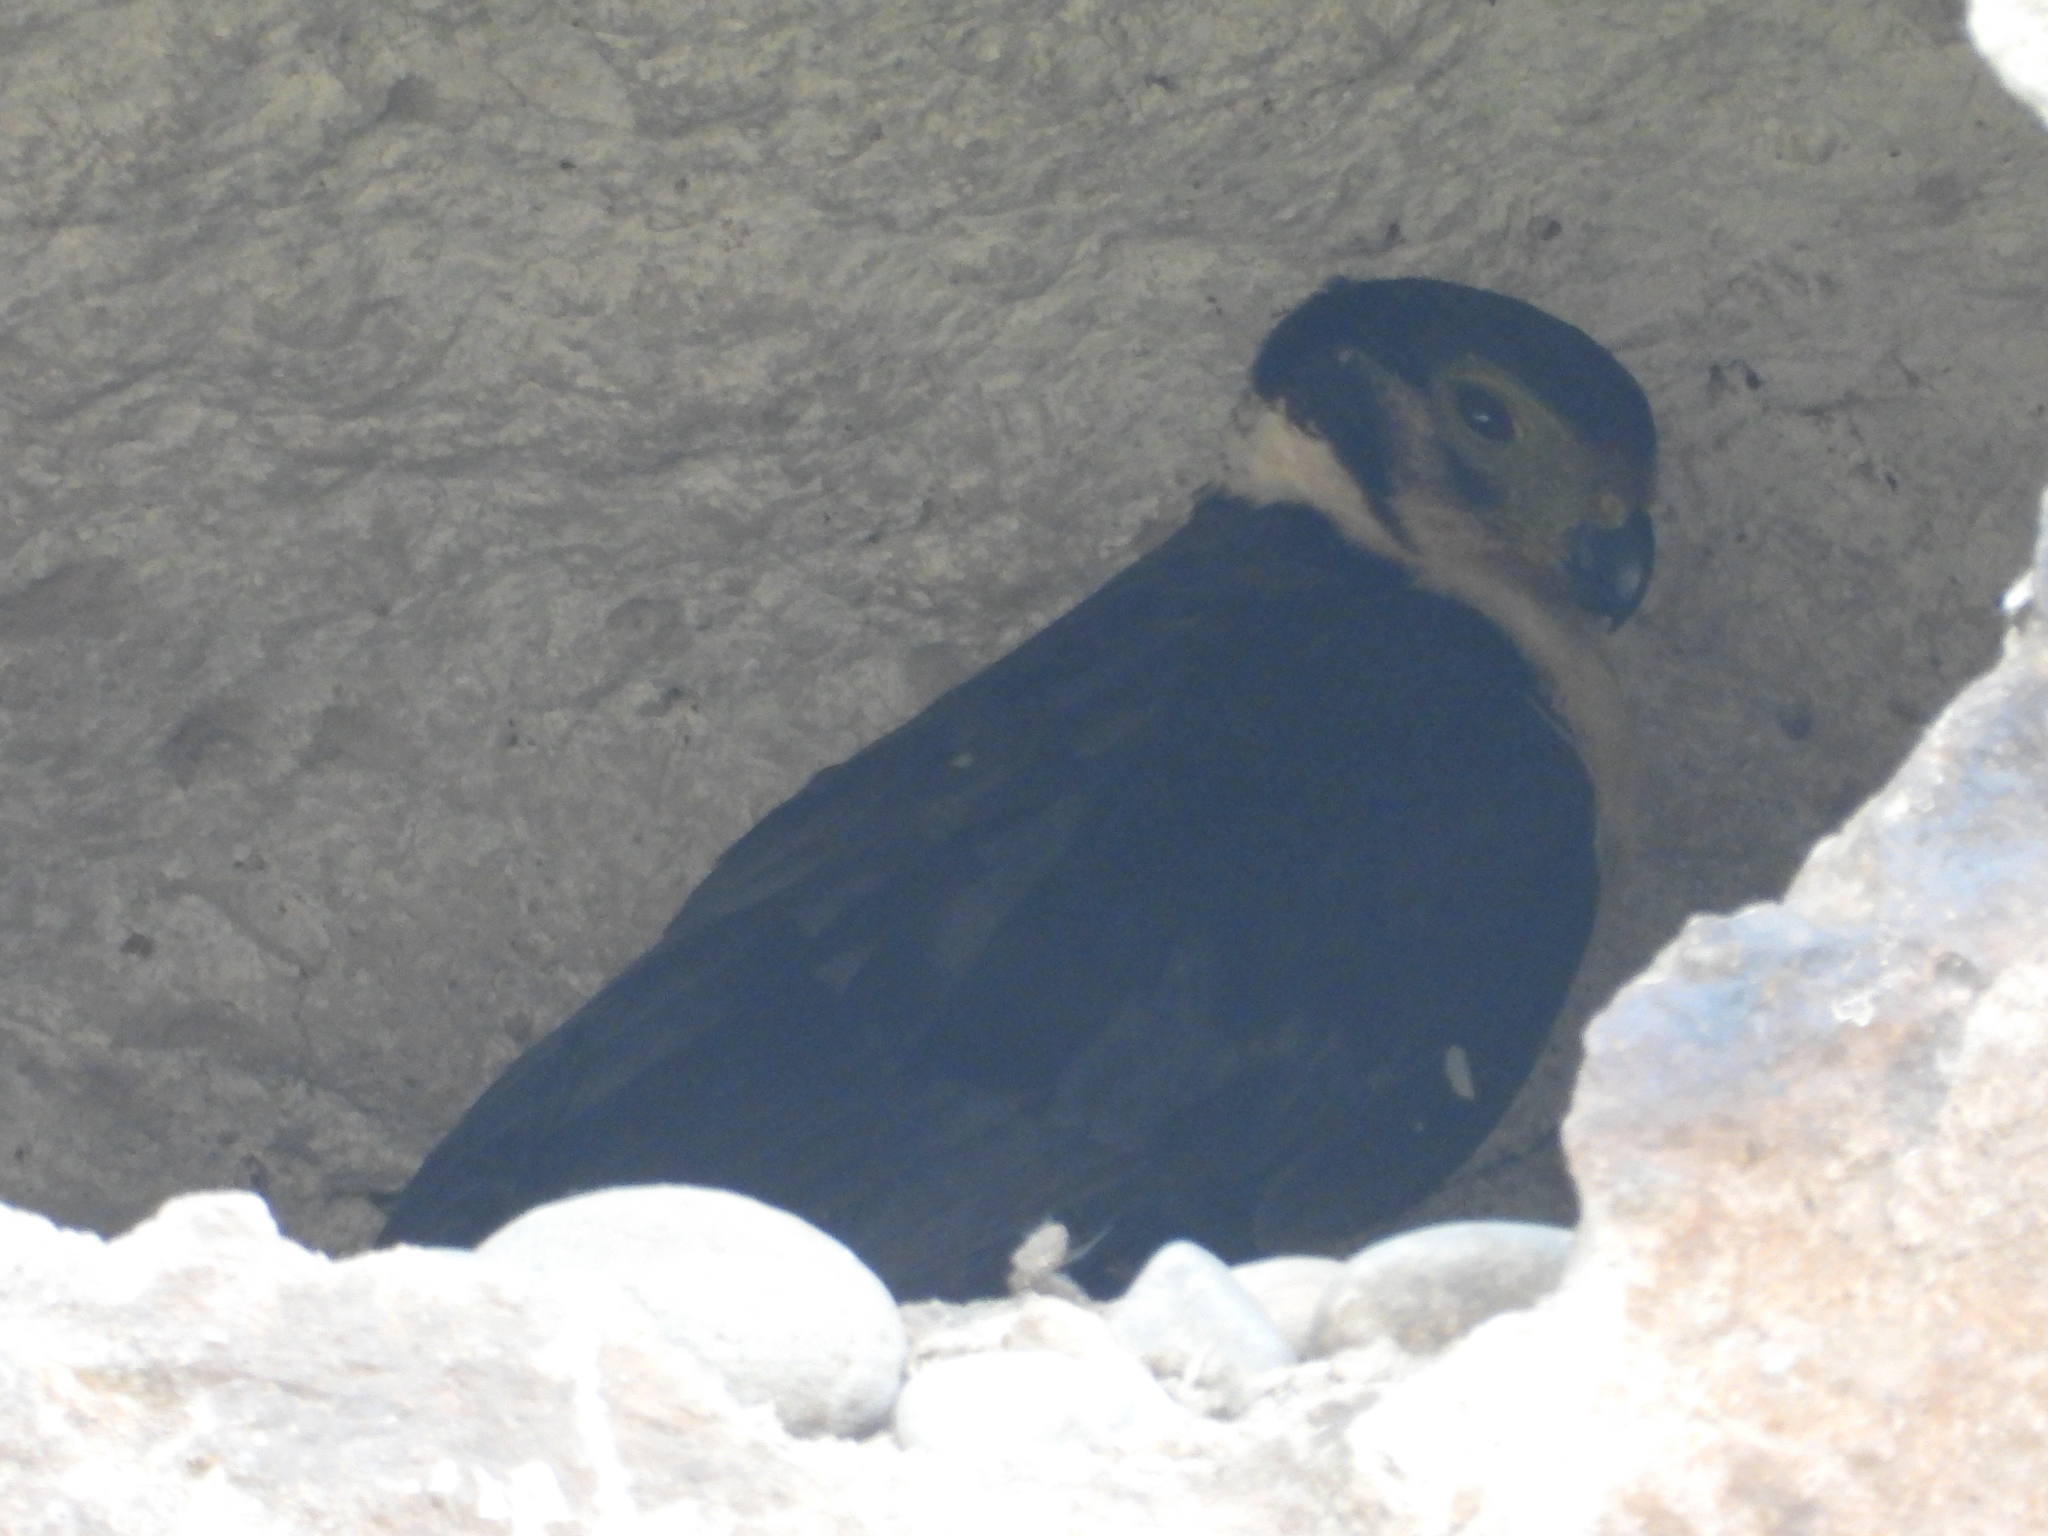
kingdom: Animalia
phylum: Chordata
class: Aves
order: Falconiformes
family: Falconidae
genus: Micrastur
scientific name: Micrastur semitorquatus
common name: Collared forest-falcon
